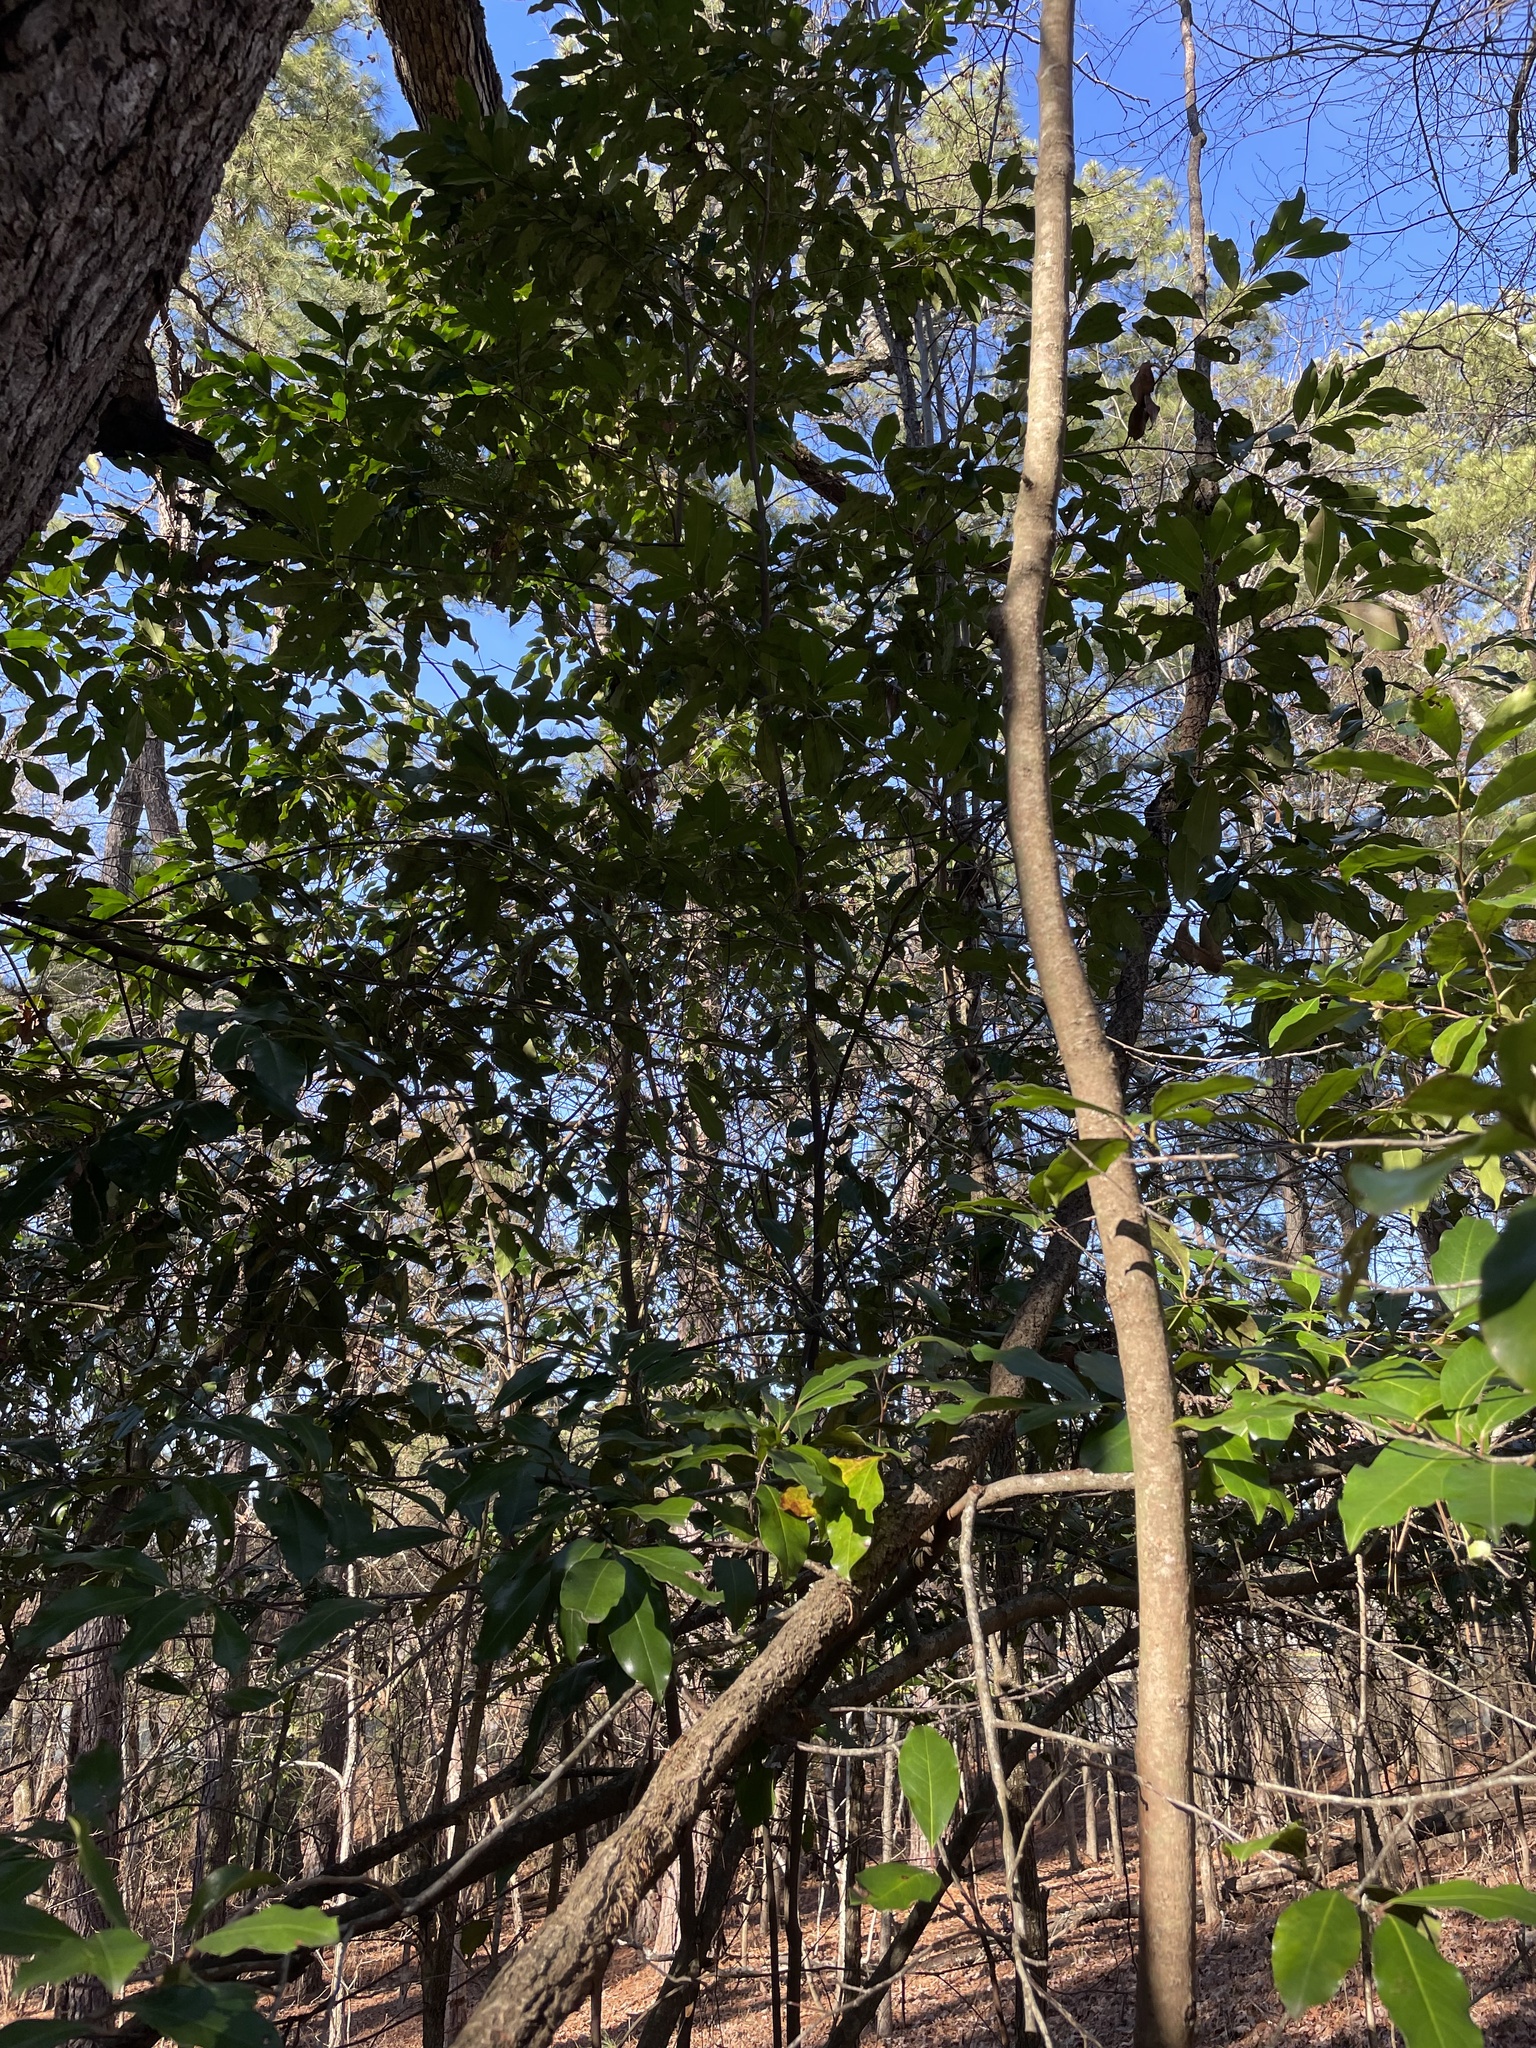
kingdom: Plantae
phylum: Tracheophyta
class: Magnoliopsida
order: Rosales
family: Rosaceae
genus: Prunus
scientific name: Prunus caroliniana
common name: Carolina laurel cherry
